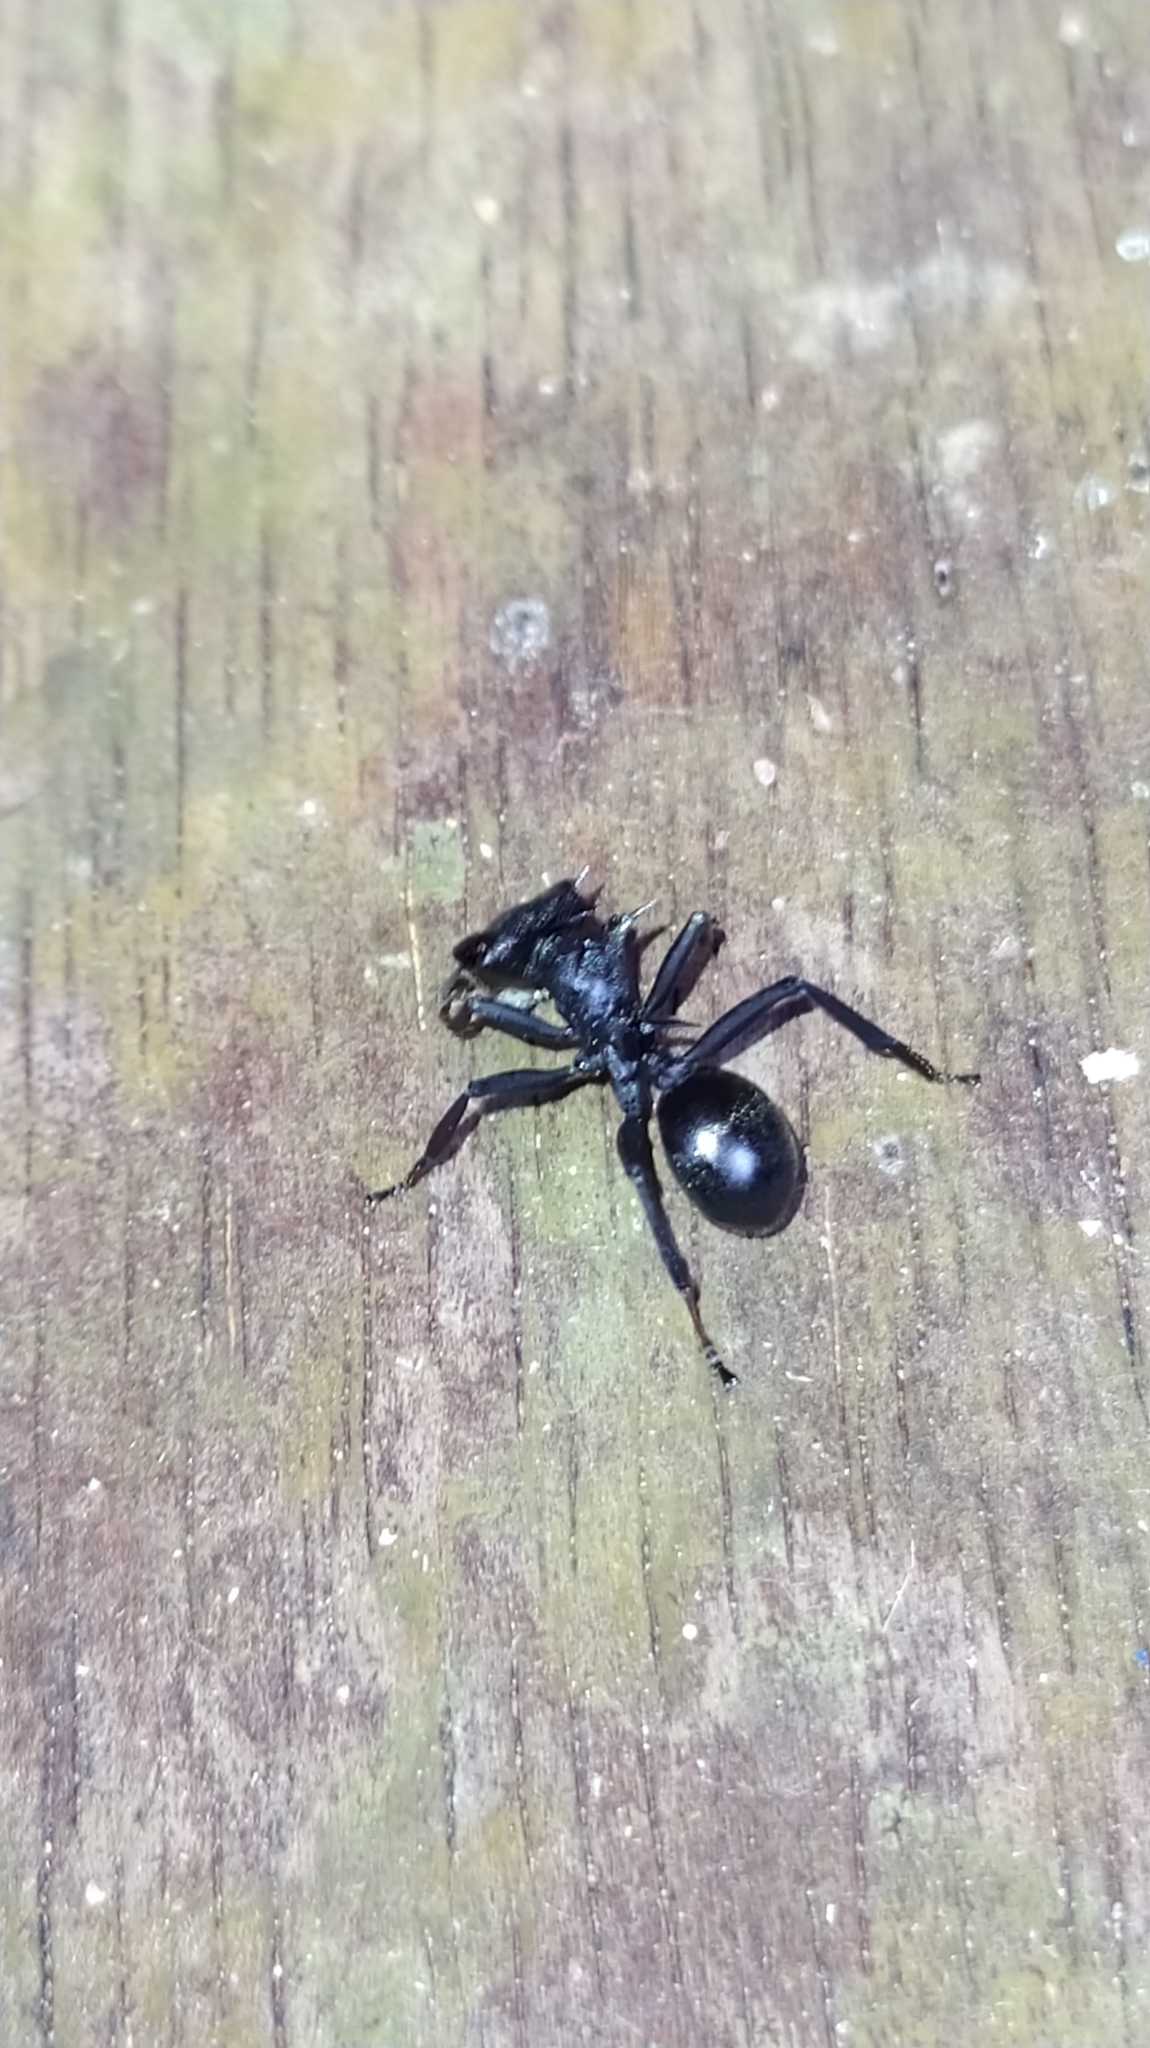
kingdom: Animalia
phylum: Arthropoda
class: Insecta
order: Hymenoptera
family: Formicidae
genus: Cephalotes
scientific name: Cephalotes
